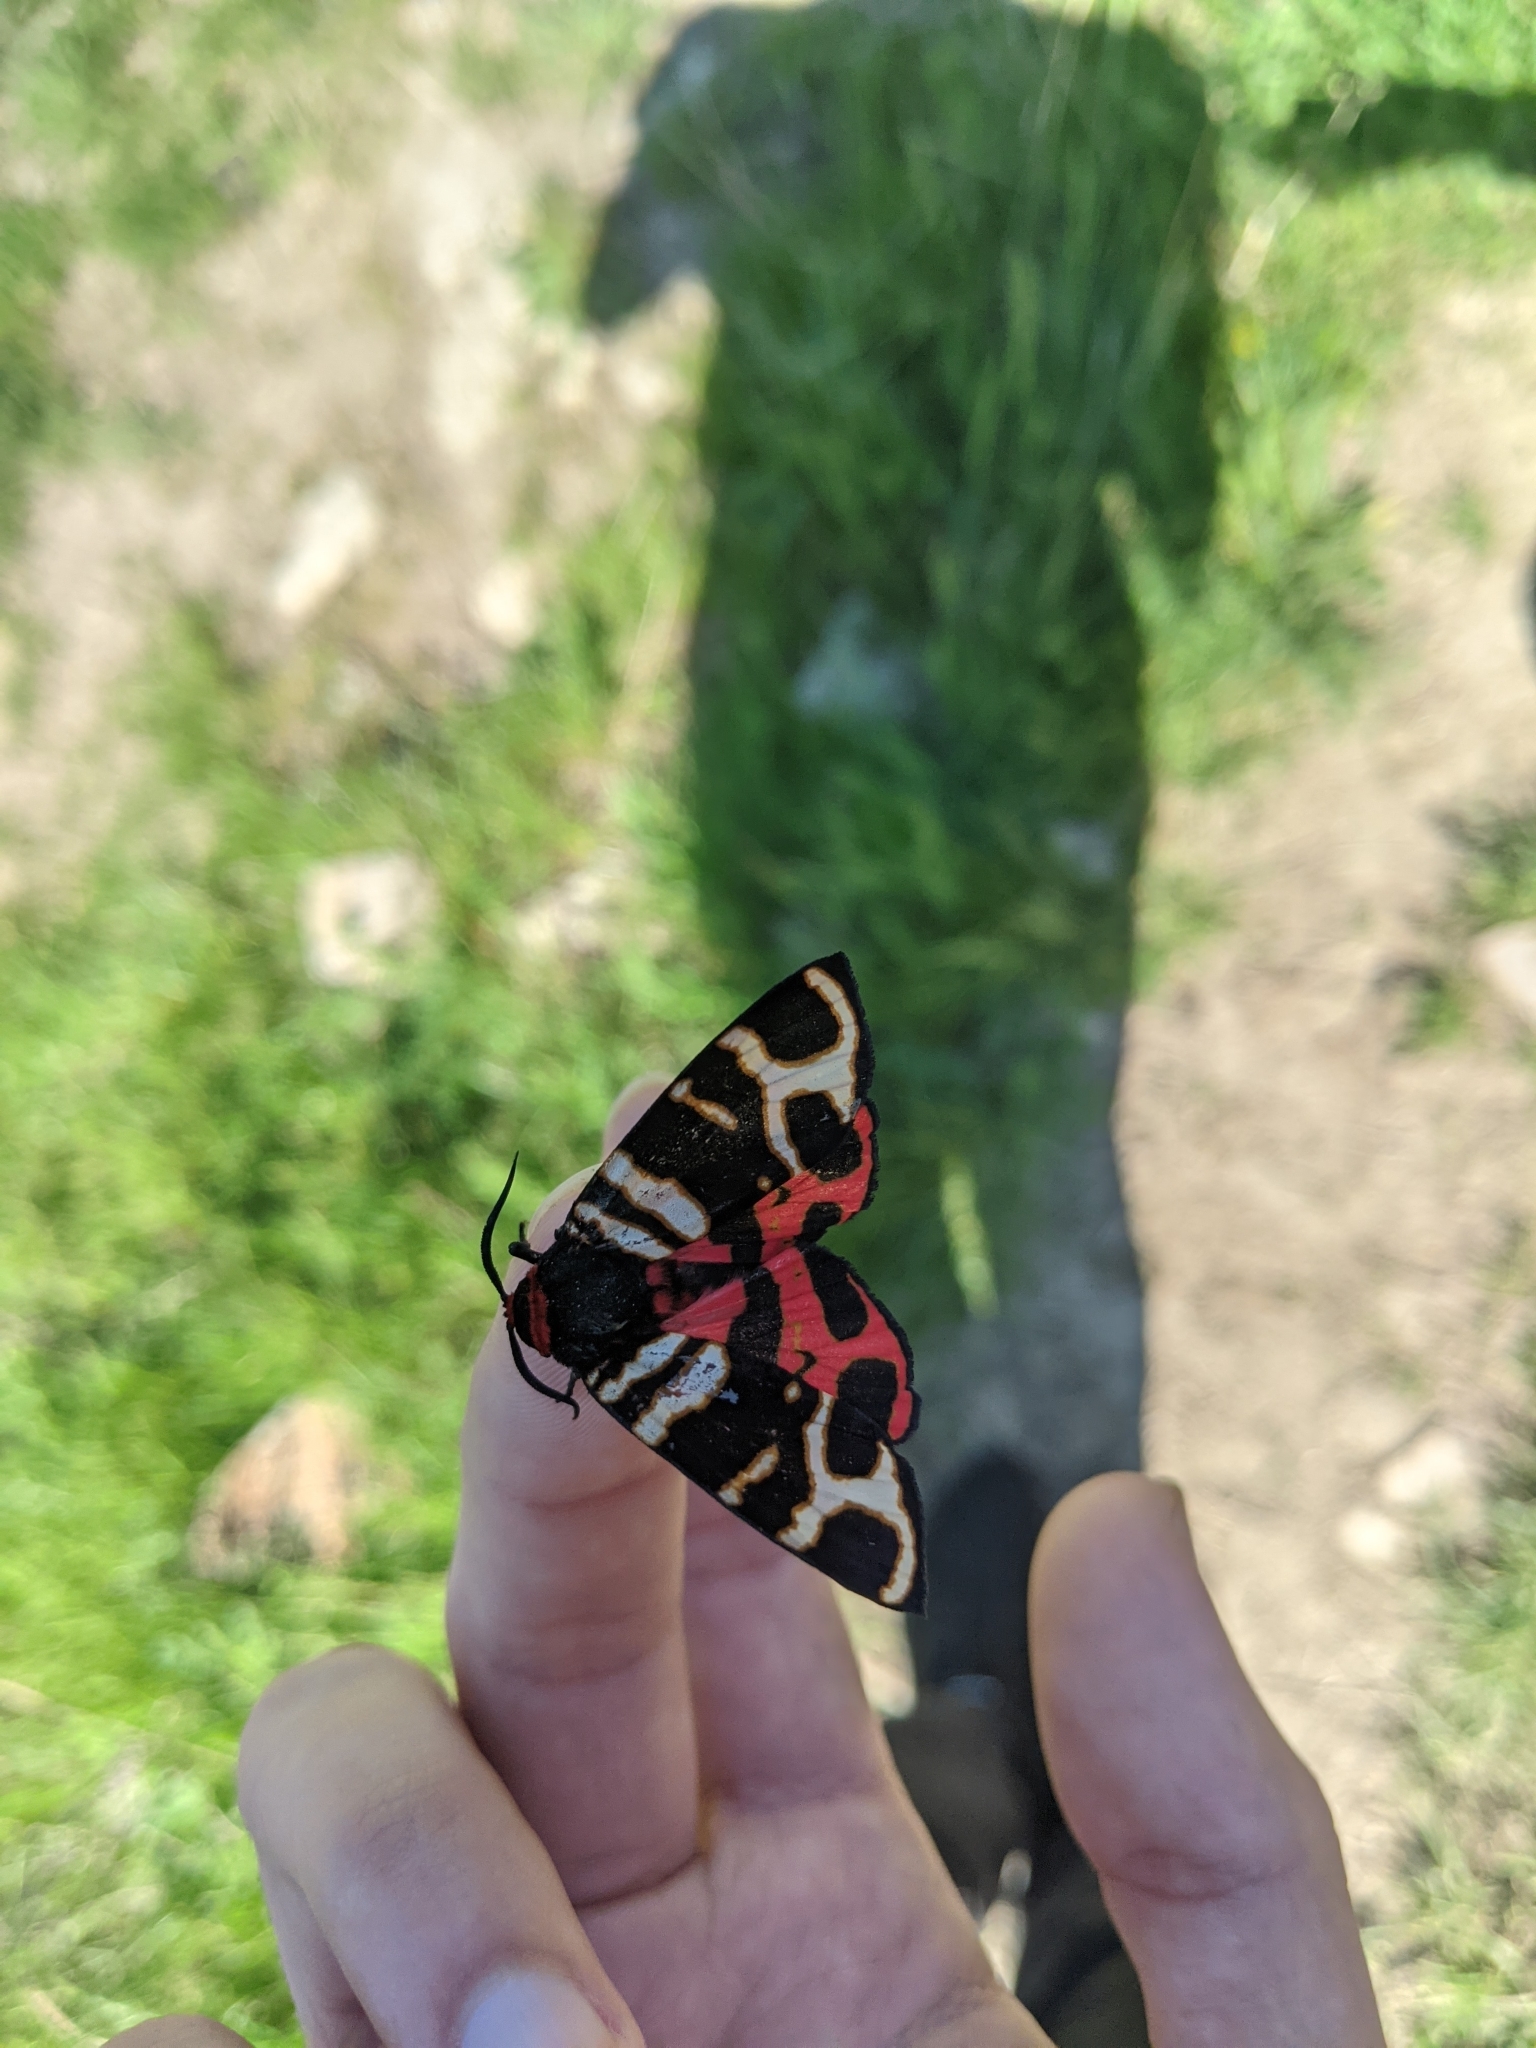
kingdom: Animalia
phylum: Arthropoda
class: Insecta
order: Lepidoptera
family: Erebidae
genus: Eucharia
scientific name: Eucharia festiva
